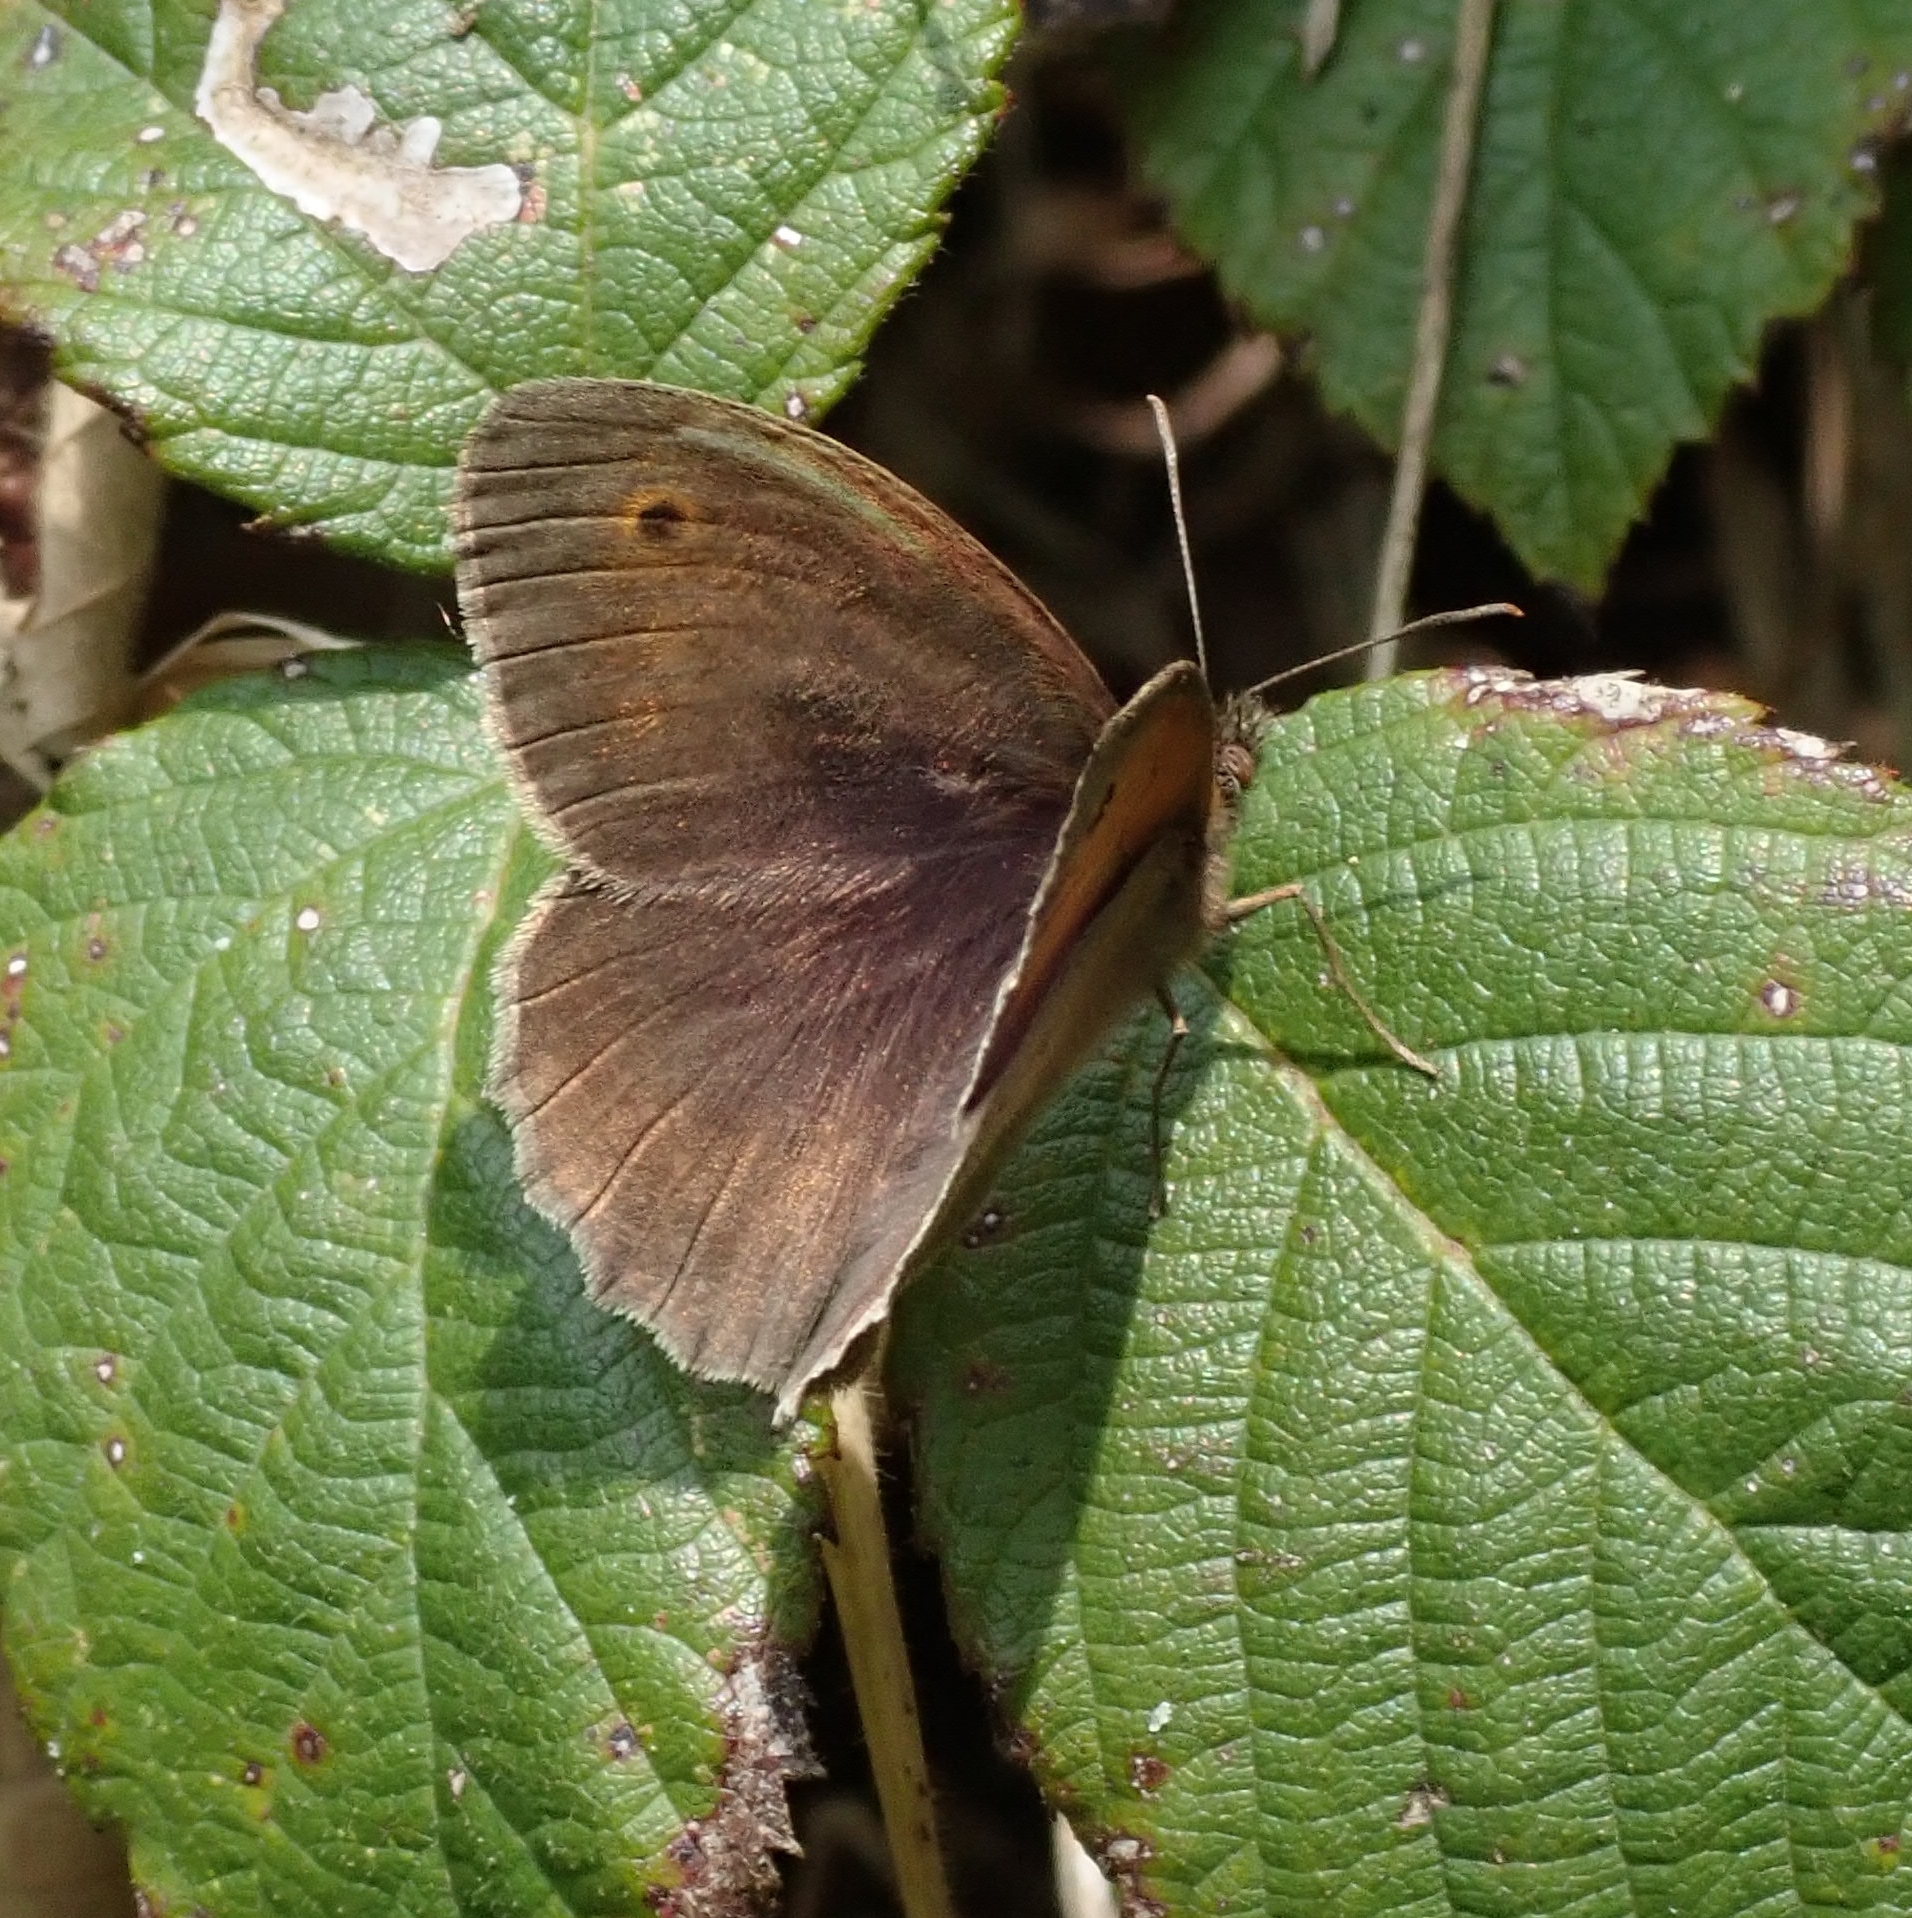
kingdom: Animalia
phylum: Arthropoda
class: Insecta
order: Lepidoptera
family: Nymphalidae
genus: Maniola
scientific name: Maniola jurtina
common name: Meadow brown
